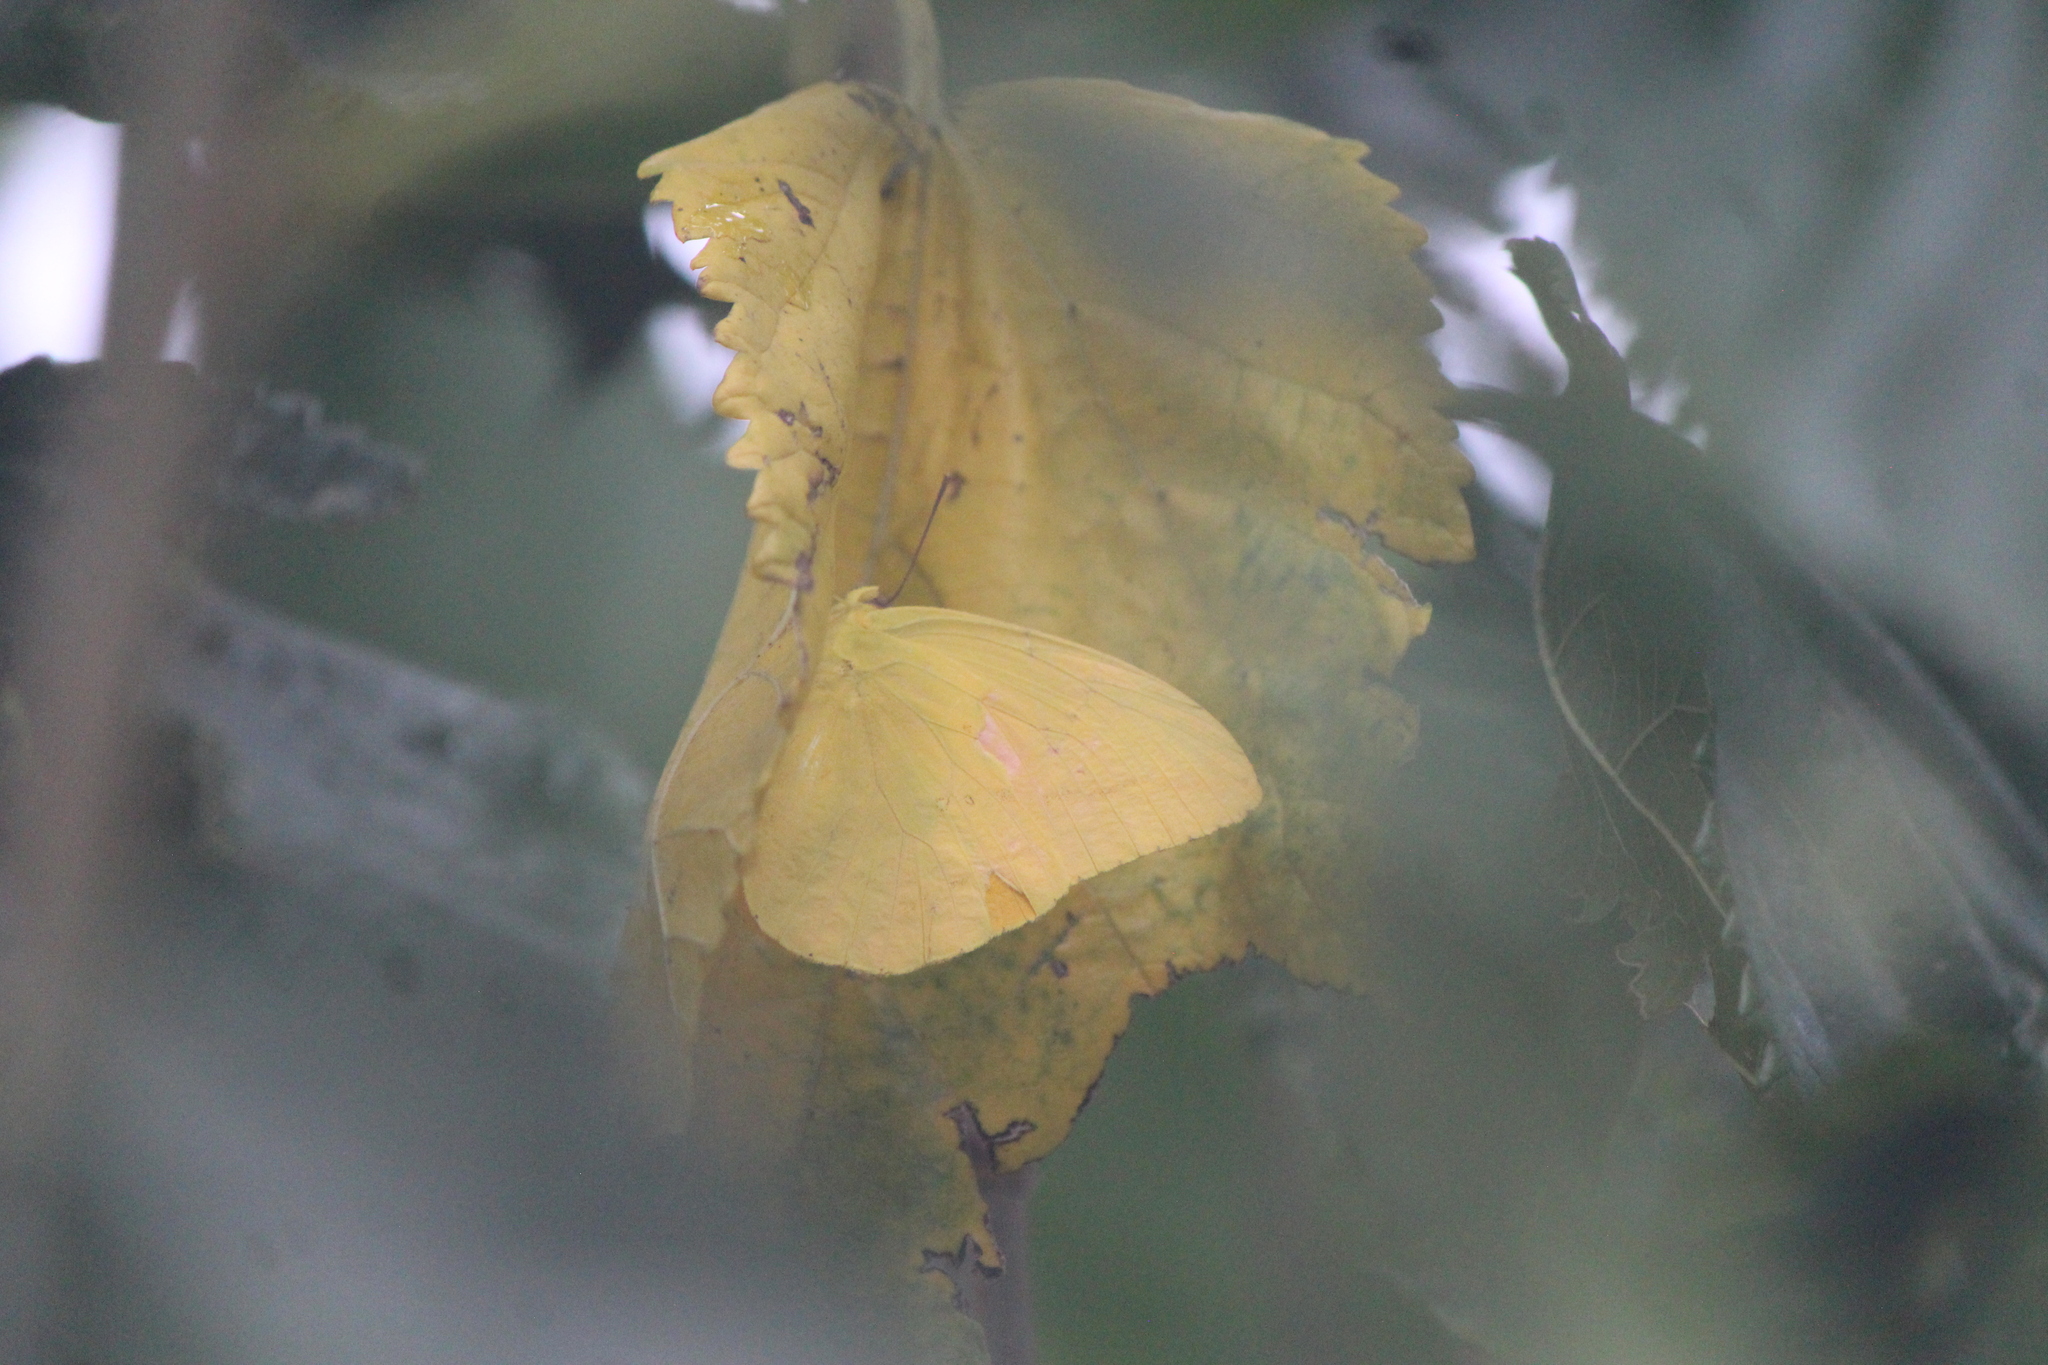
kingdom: Animalia
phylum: Arthropoda
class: Insecta
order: Lepidoptera
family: Pieridae
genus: Phoebis
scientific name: Phoebis agarithe
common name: Large orange sulphur
